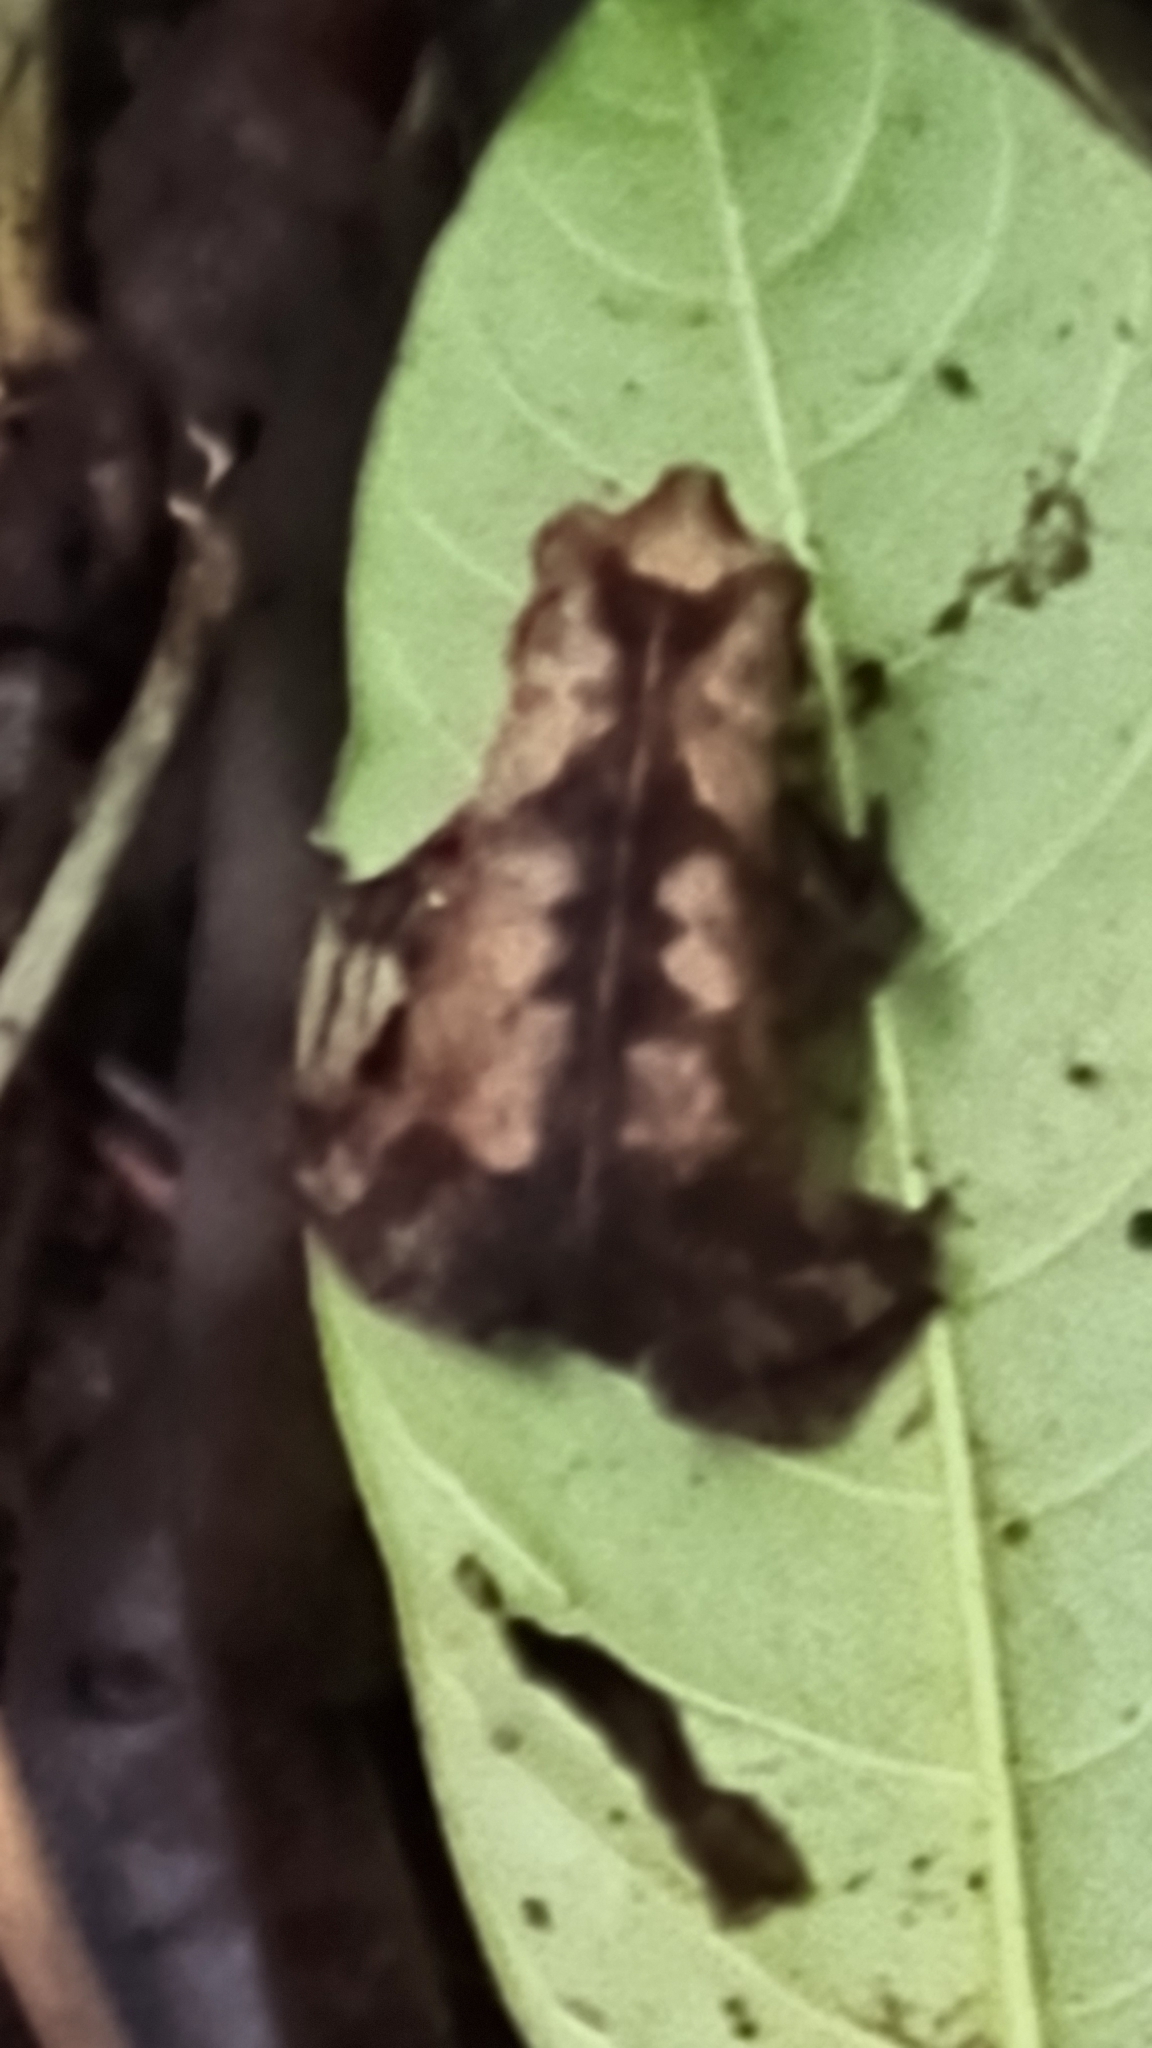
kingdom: Animalia
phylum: Chordata
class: Amphibia
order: Anura
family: Bufonidae
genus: Rhinella
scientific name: Rhinella alata
